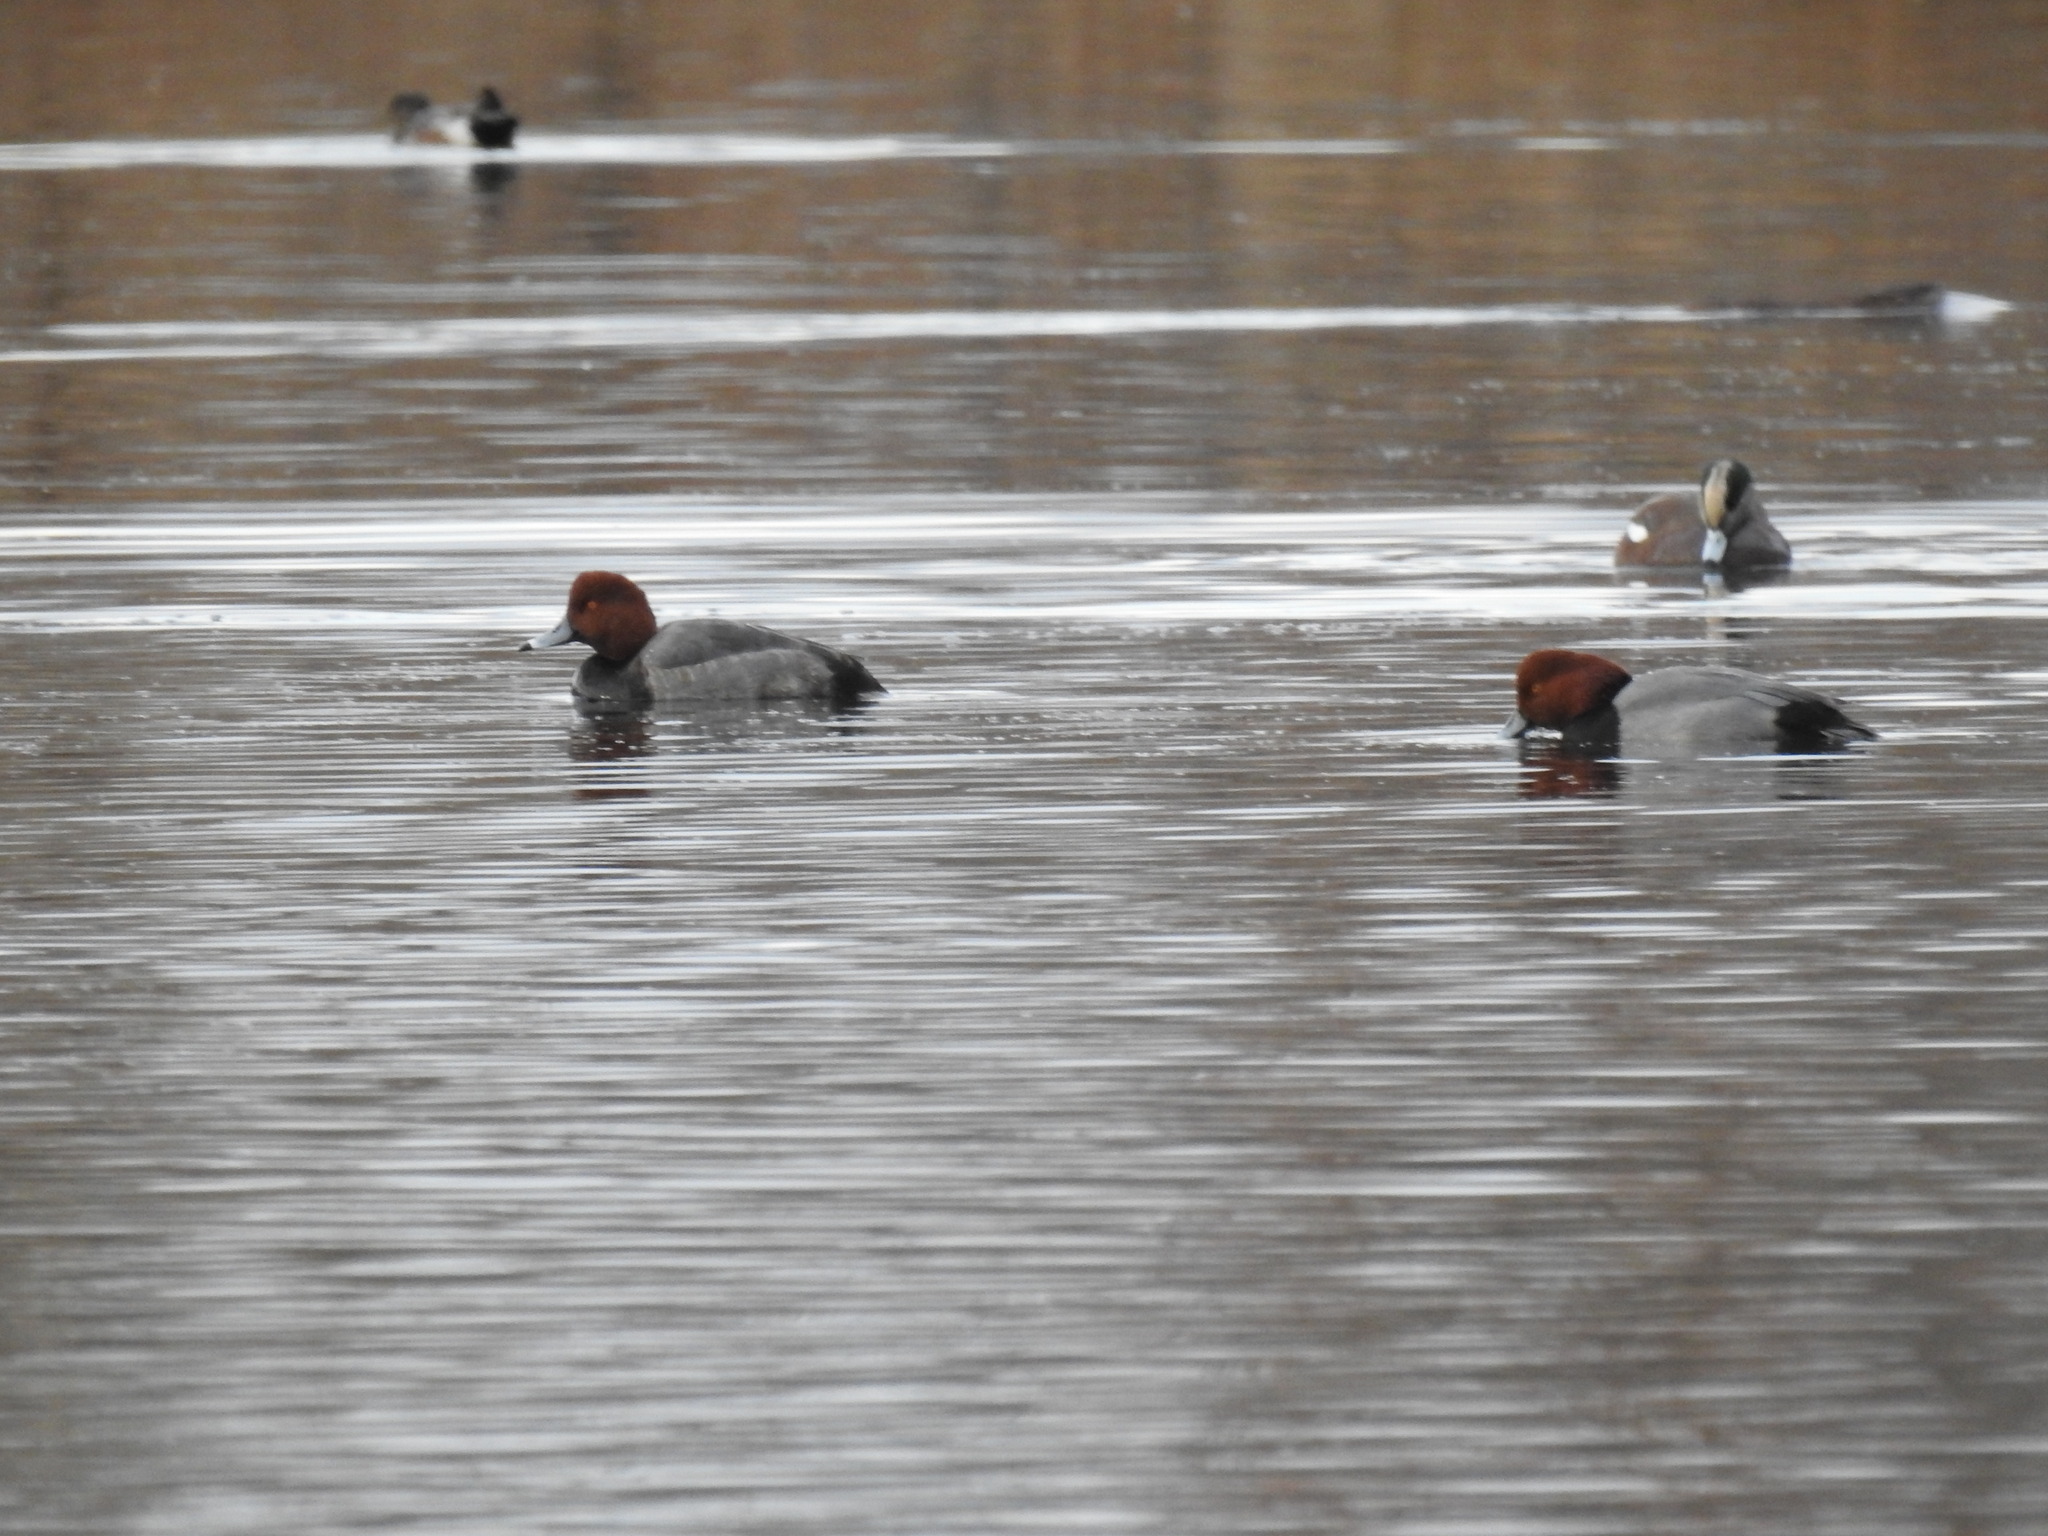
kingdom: Animalia
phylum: Chordata
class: Aves
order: Anseriformes
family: Anatidae
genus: Aythya
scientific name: Aythya americana
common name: Redhead
